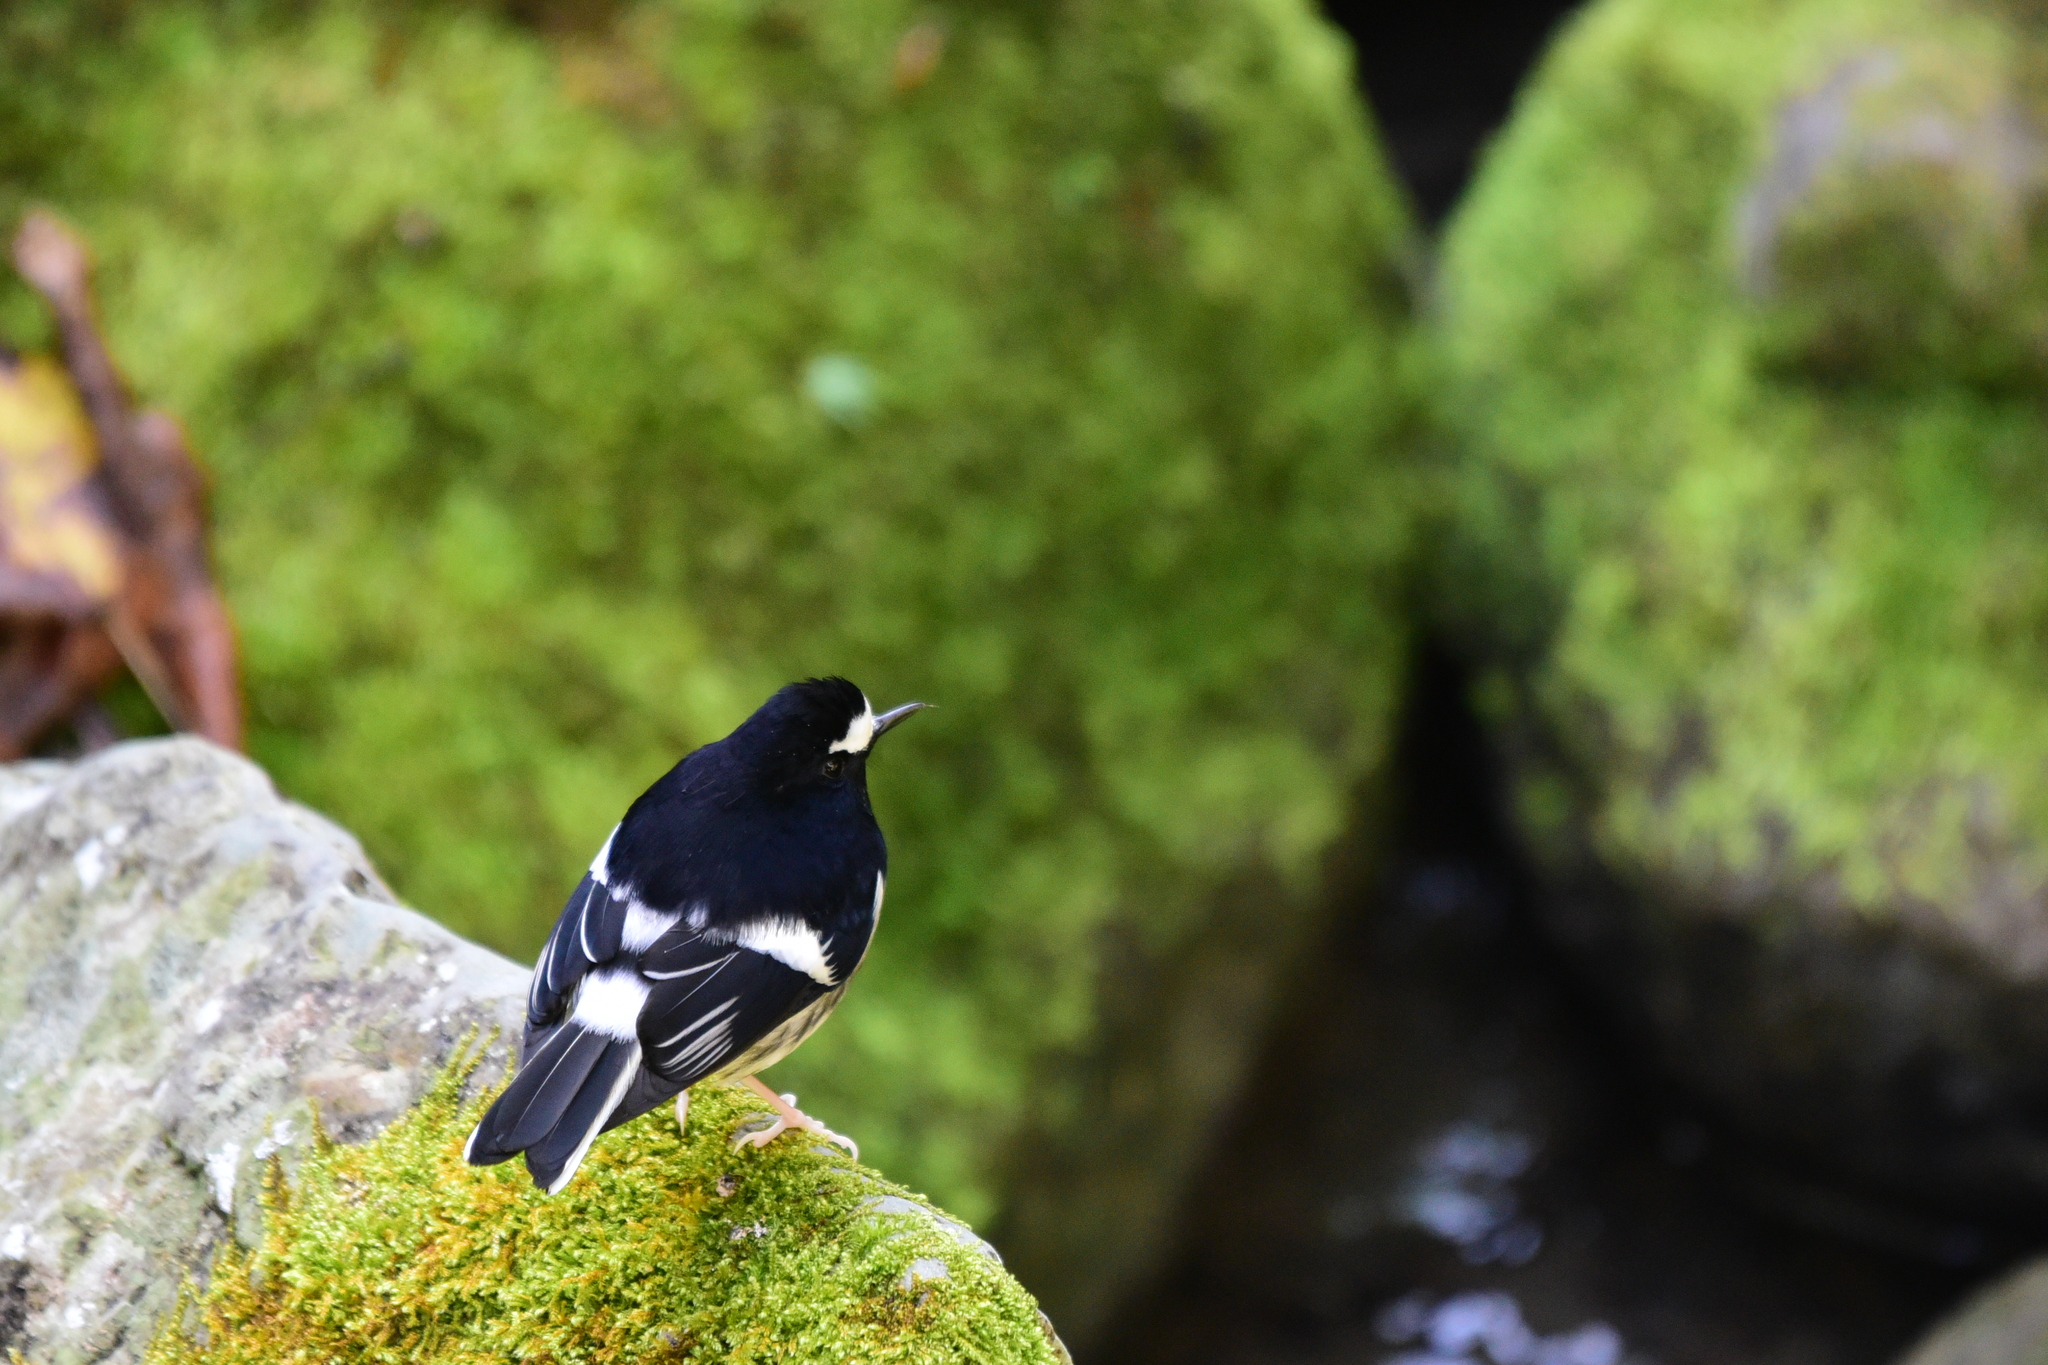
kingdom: Animalia
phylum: Chordata
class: Aves
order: Passeriformes
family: Muscicapidae
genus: Enicurus
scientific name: Enicurus scouleri
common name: Little forktail
